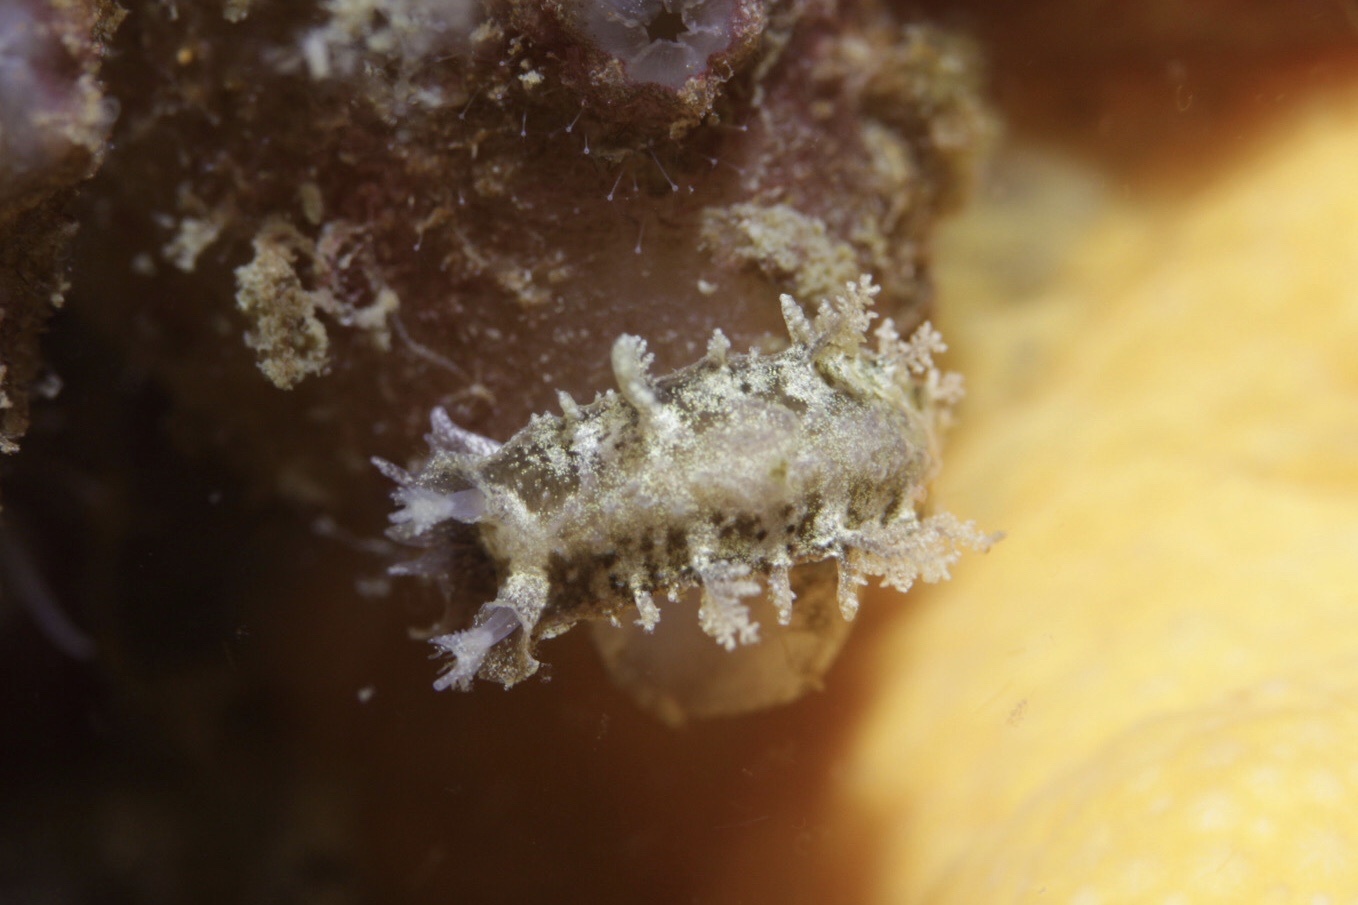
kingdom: Animalia
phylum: Mollusca
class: Gastropoda
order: Nudibranchia
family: Tritoniidae
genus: Duvaucelia
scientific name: Duvaucelia plebeia
